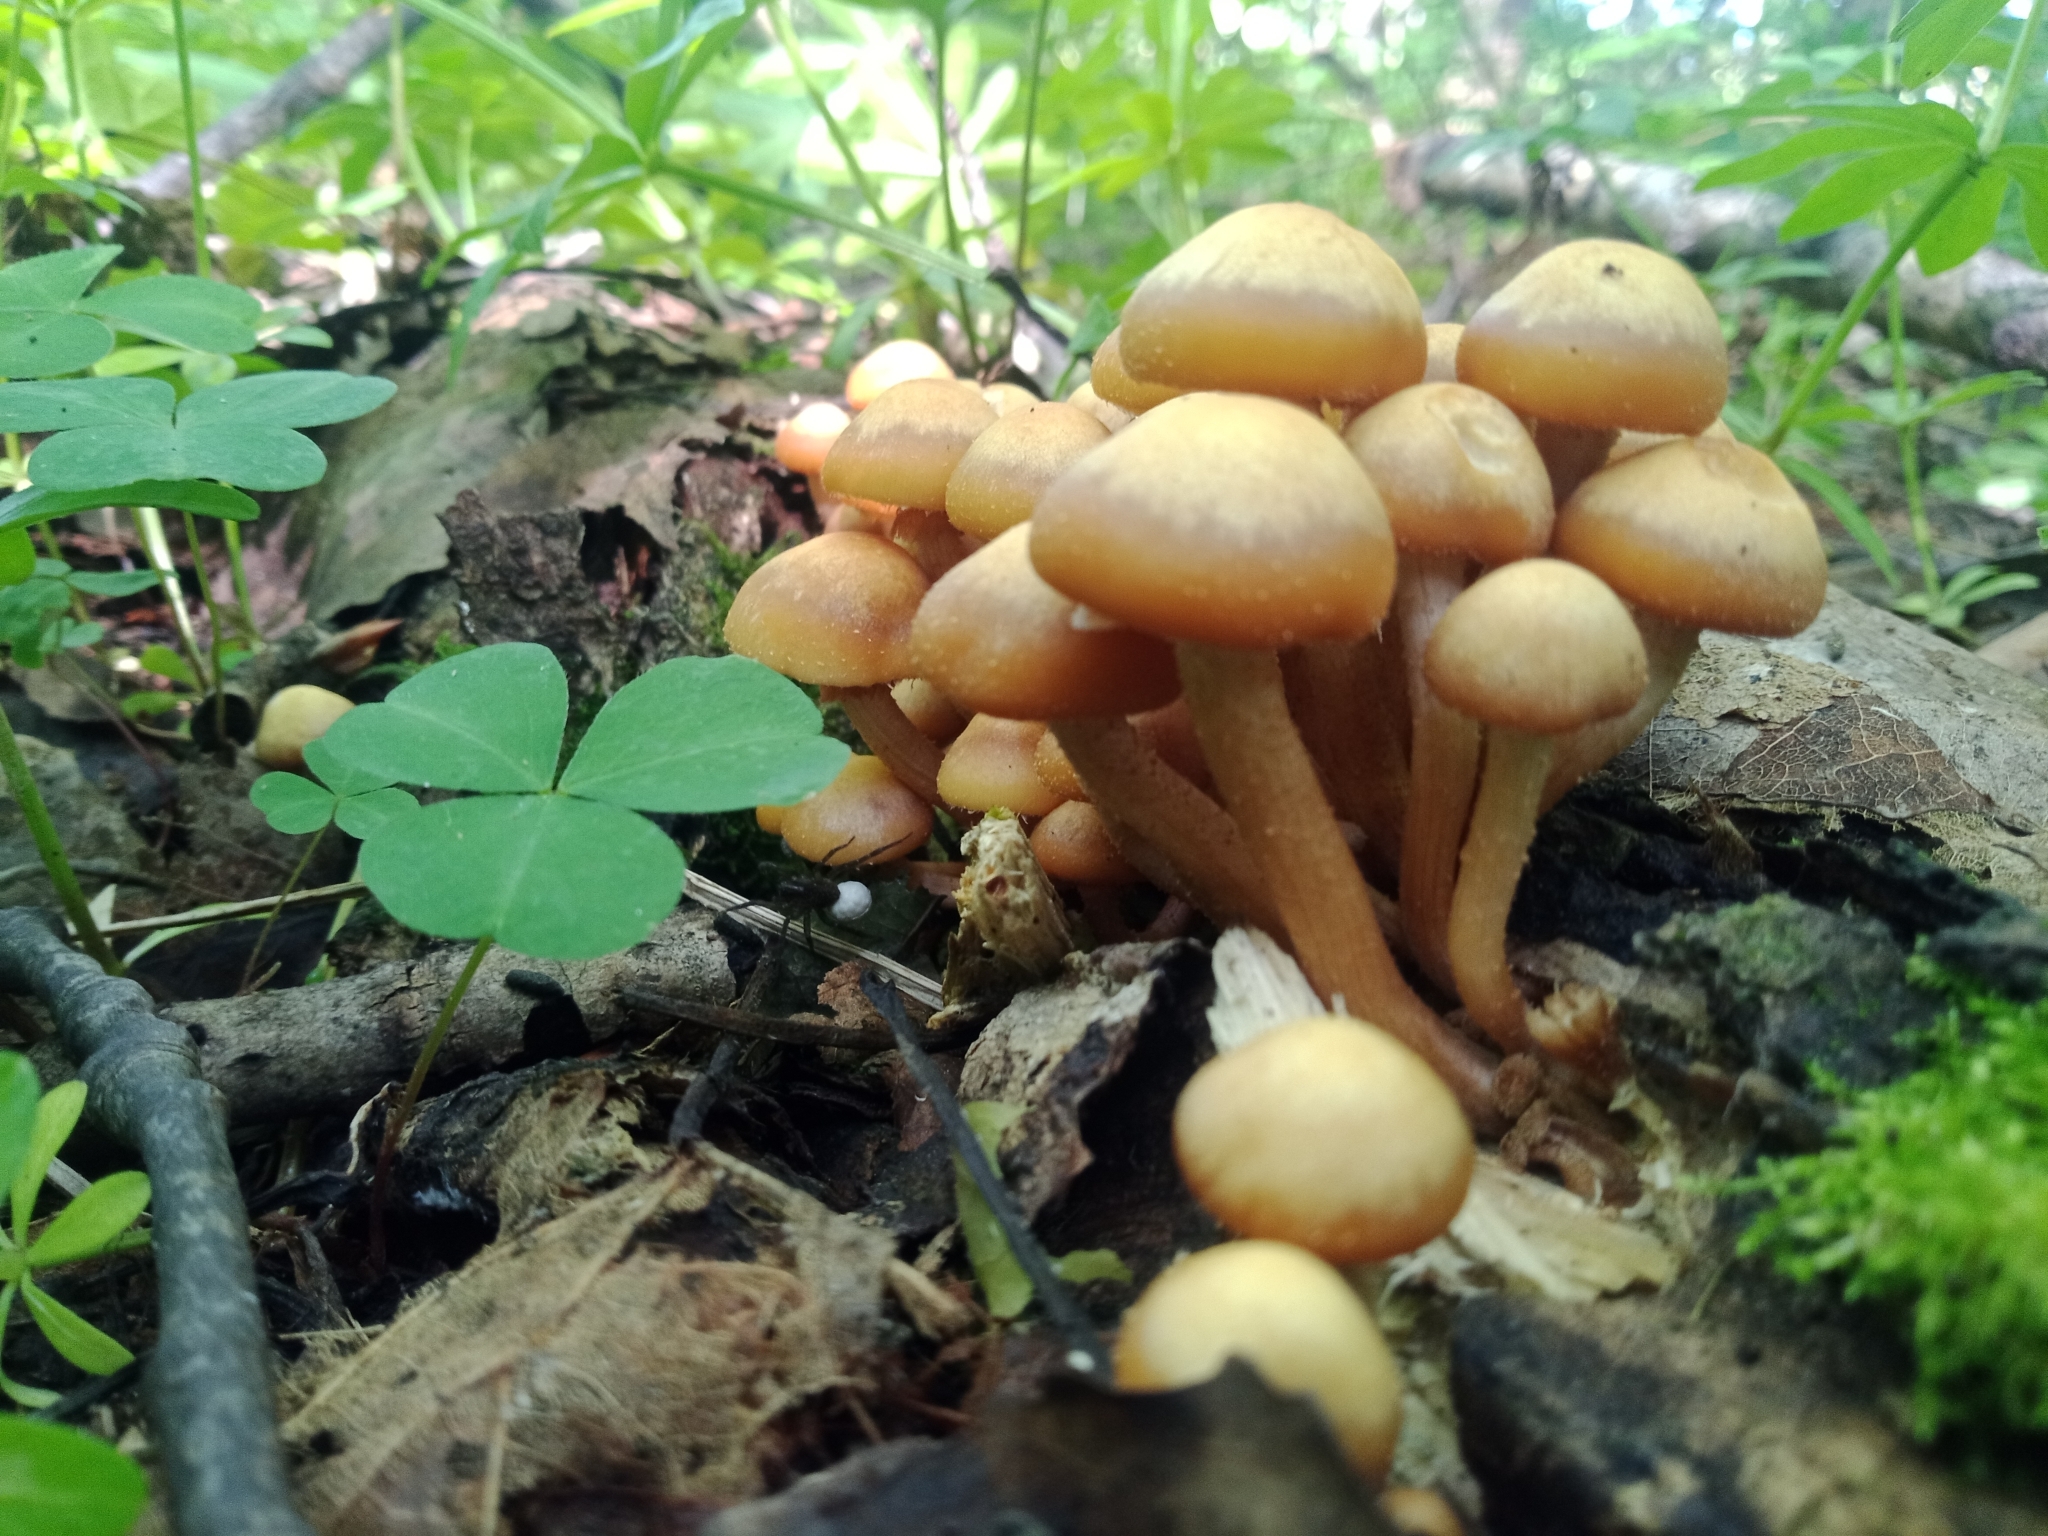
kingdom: Fungi
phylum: Basidiomycota
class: Agaricomycetes
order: Agaricales
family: Strophariaceae
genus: Kuehneromyces
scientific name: Kuehneromyces mutabilis
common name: Sheathed woodtuft
